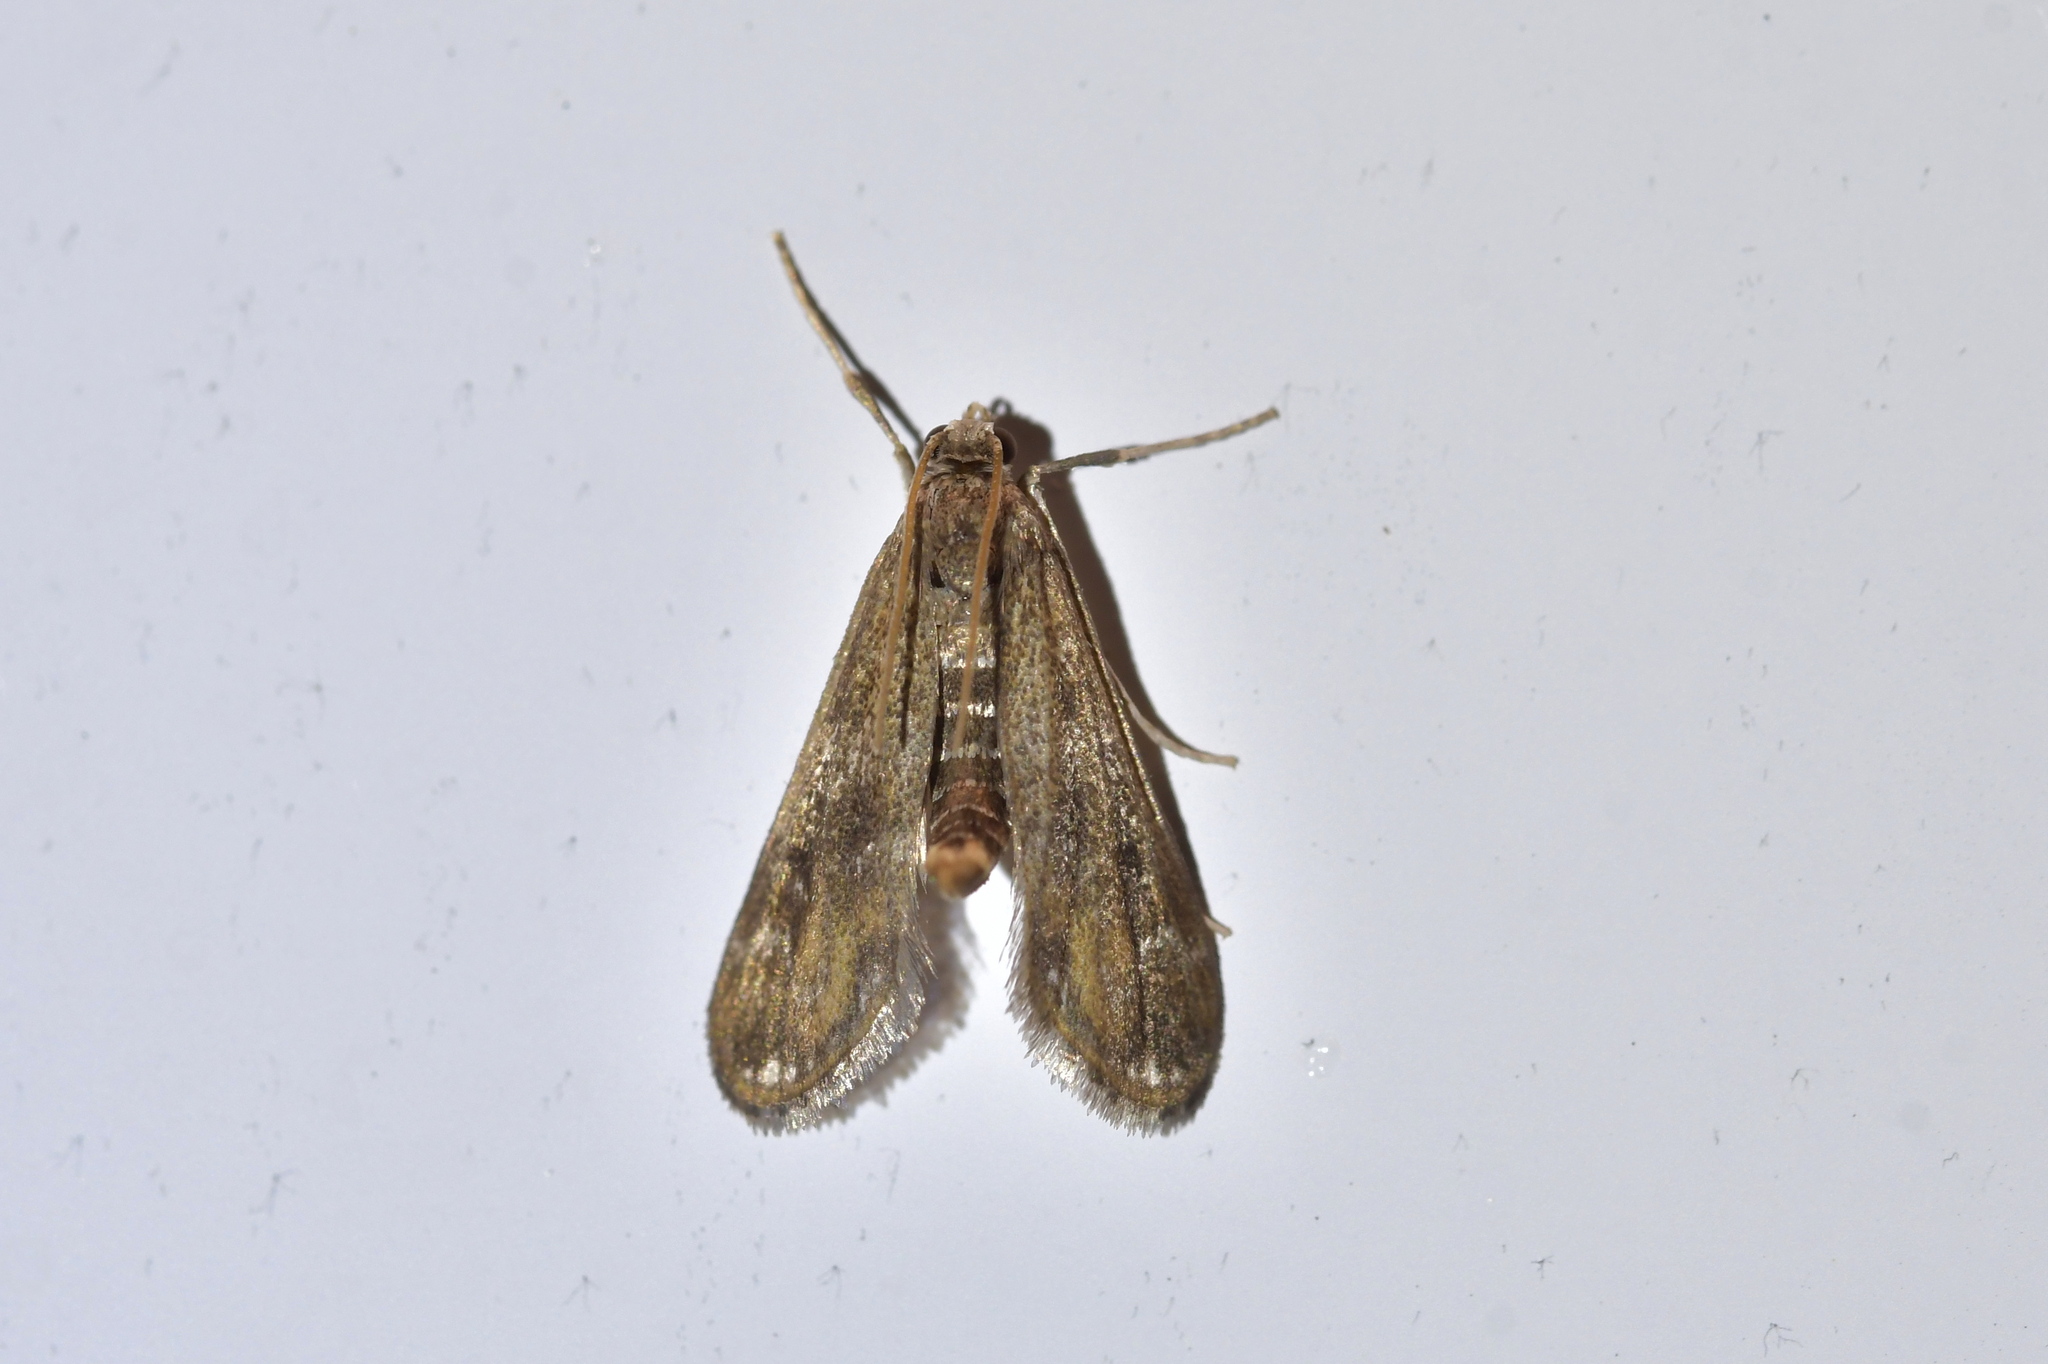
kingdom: Animalia
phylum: Arthropoda
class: Insecta
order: Lepidoptera
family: Crambidae
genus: Hygraula
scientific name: Hygraula nitens
